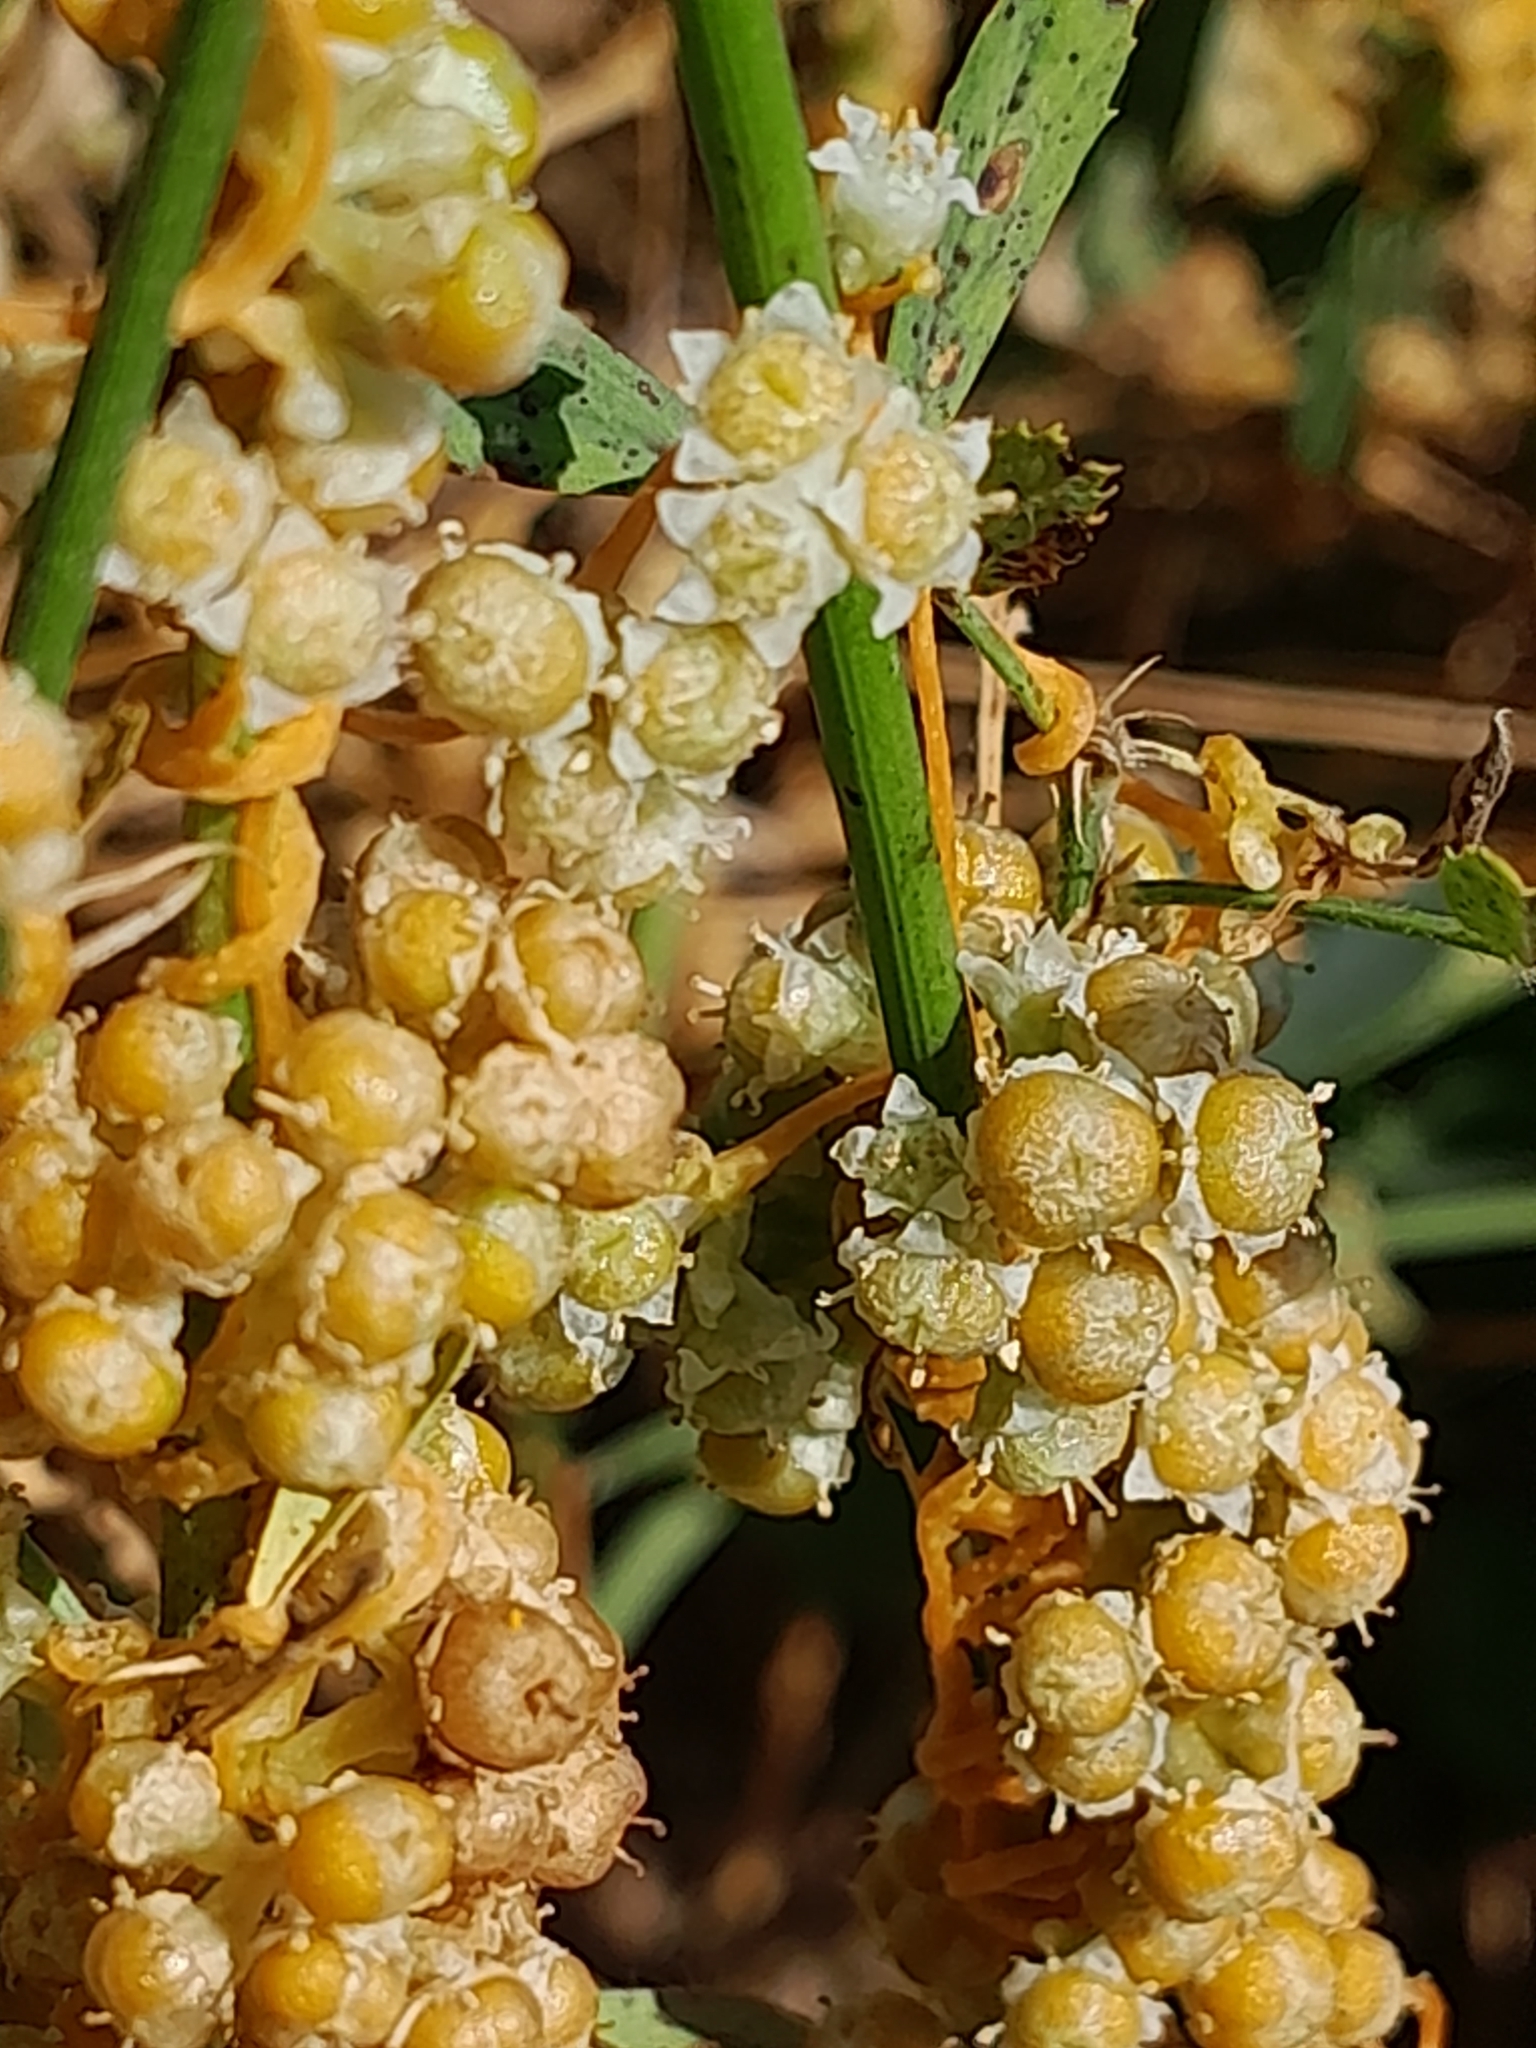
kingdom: Plantae
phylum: Tracheophyta
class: Magnoliopsida
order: Solanales
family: Convolvulaceae
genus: Cuscuta
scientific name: Cuscuta campestris
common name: Yellow dodder
